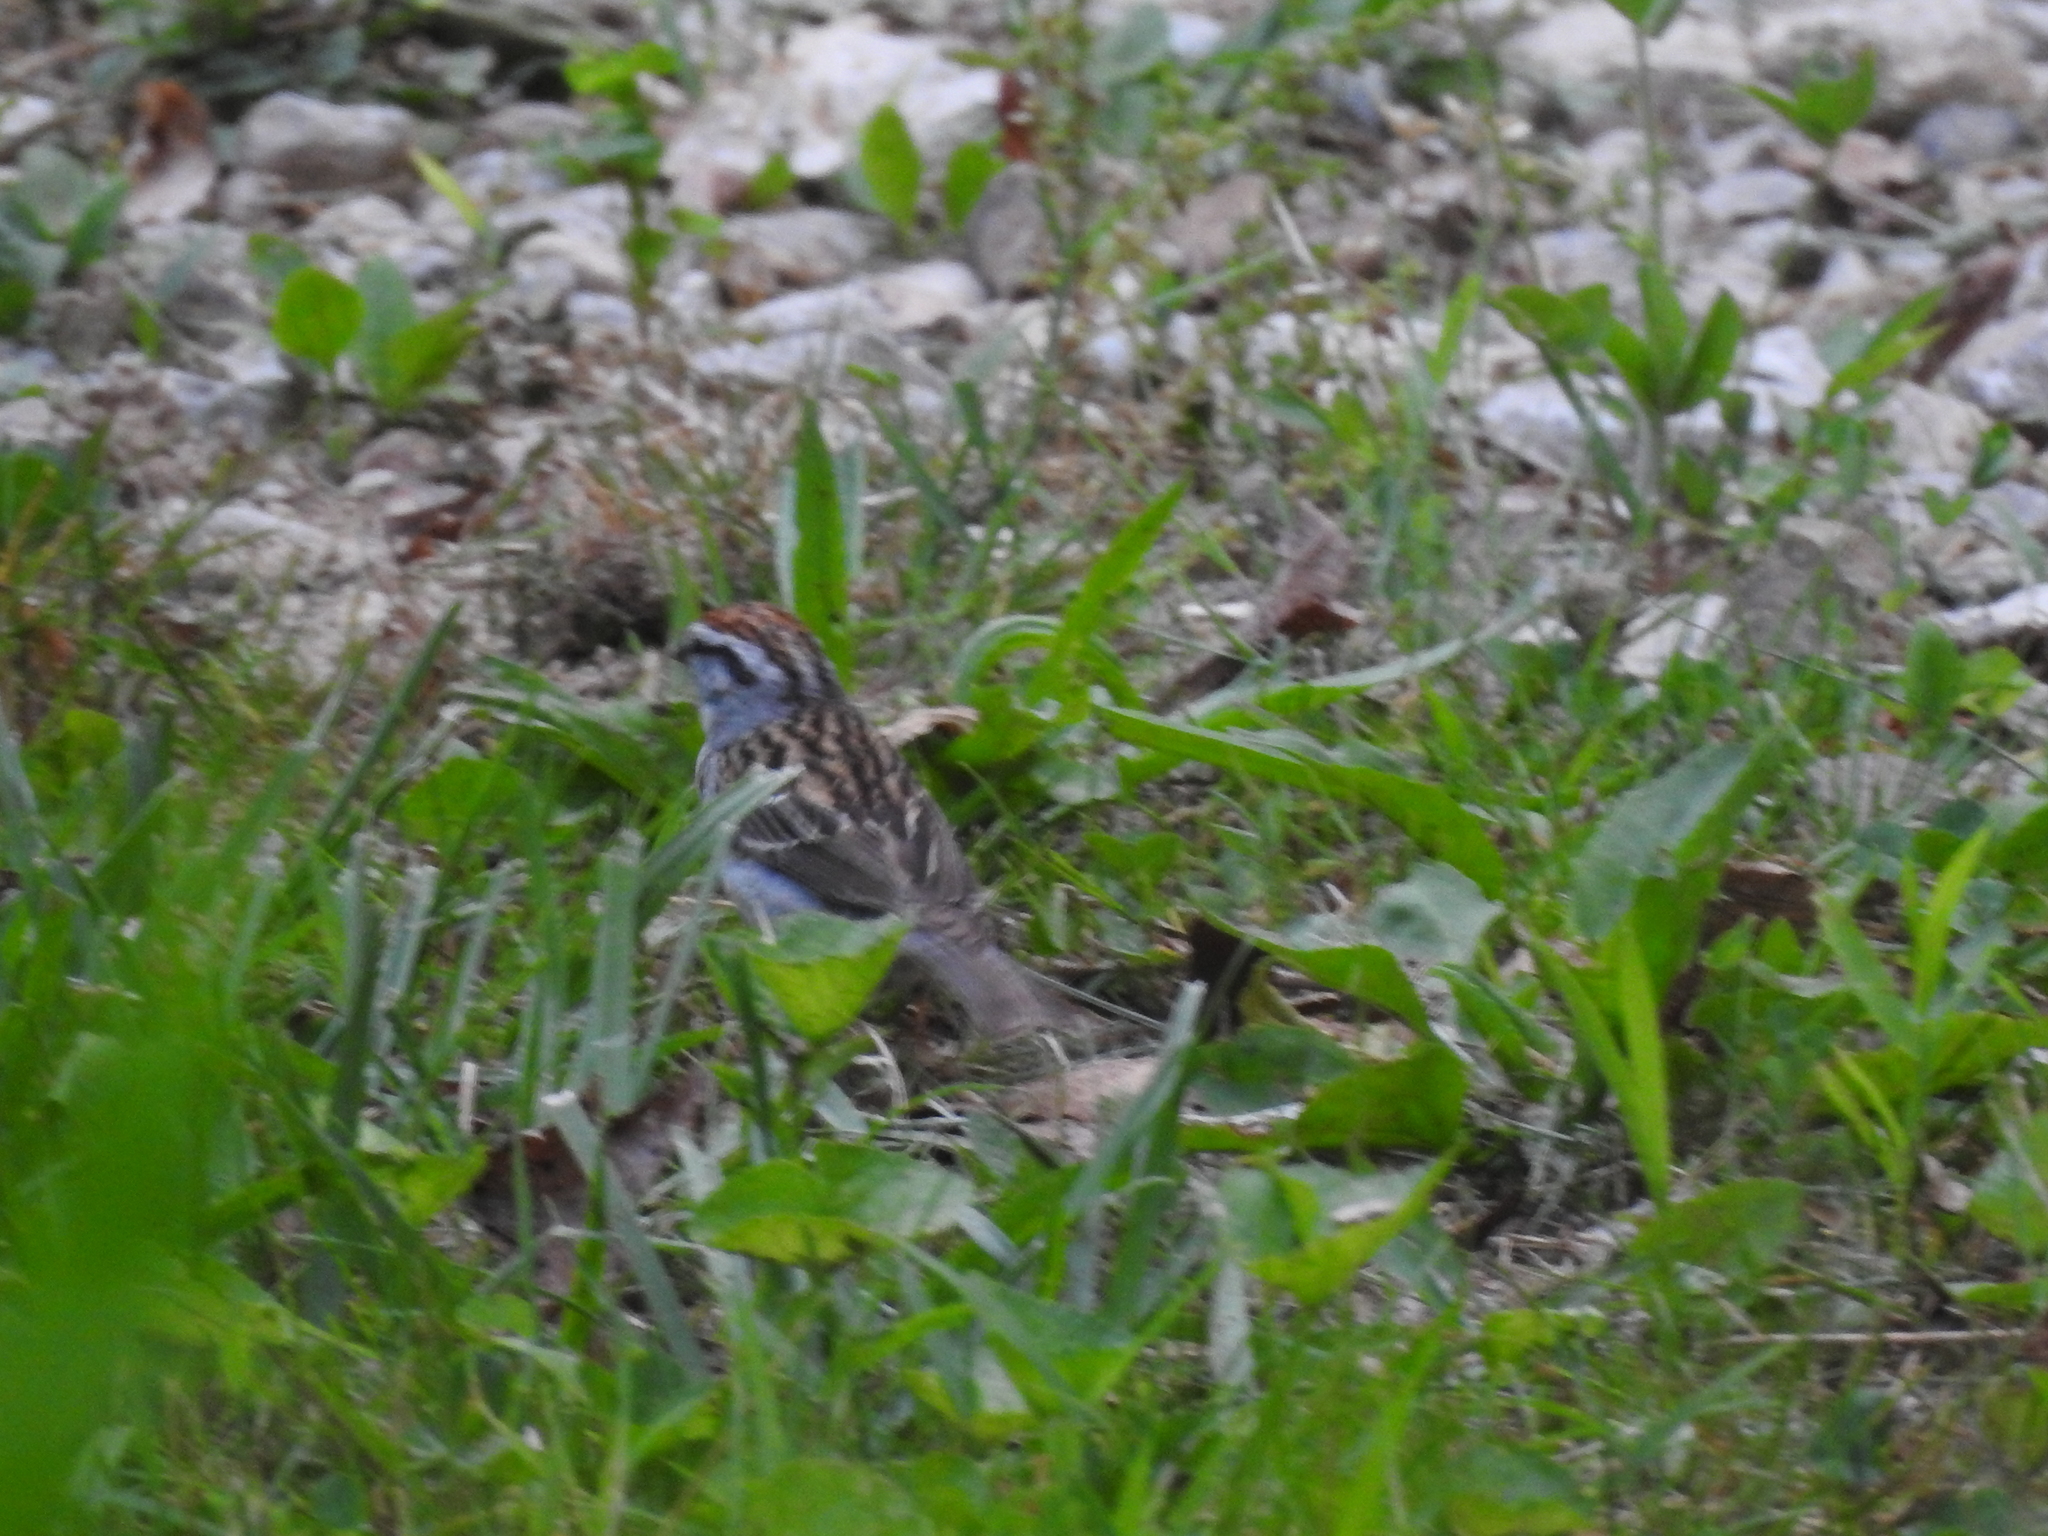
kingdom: Animalia
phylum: Chordata
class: Aves
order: Passeriformes
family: Passerellidae
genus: Spizella
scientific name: Spizella passerina
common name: Chipping sparrow
